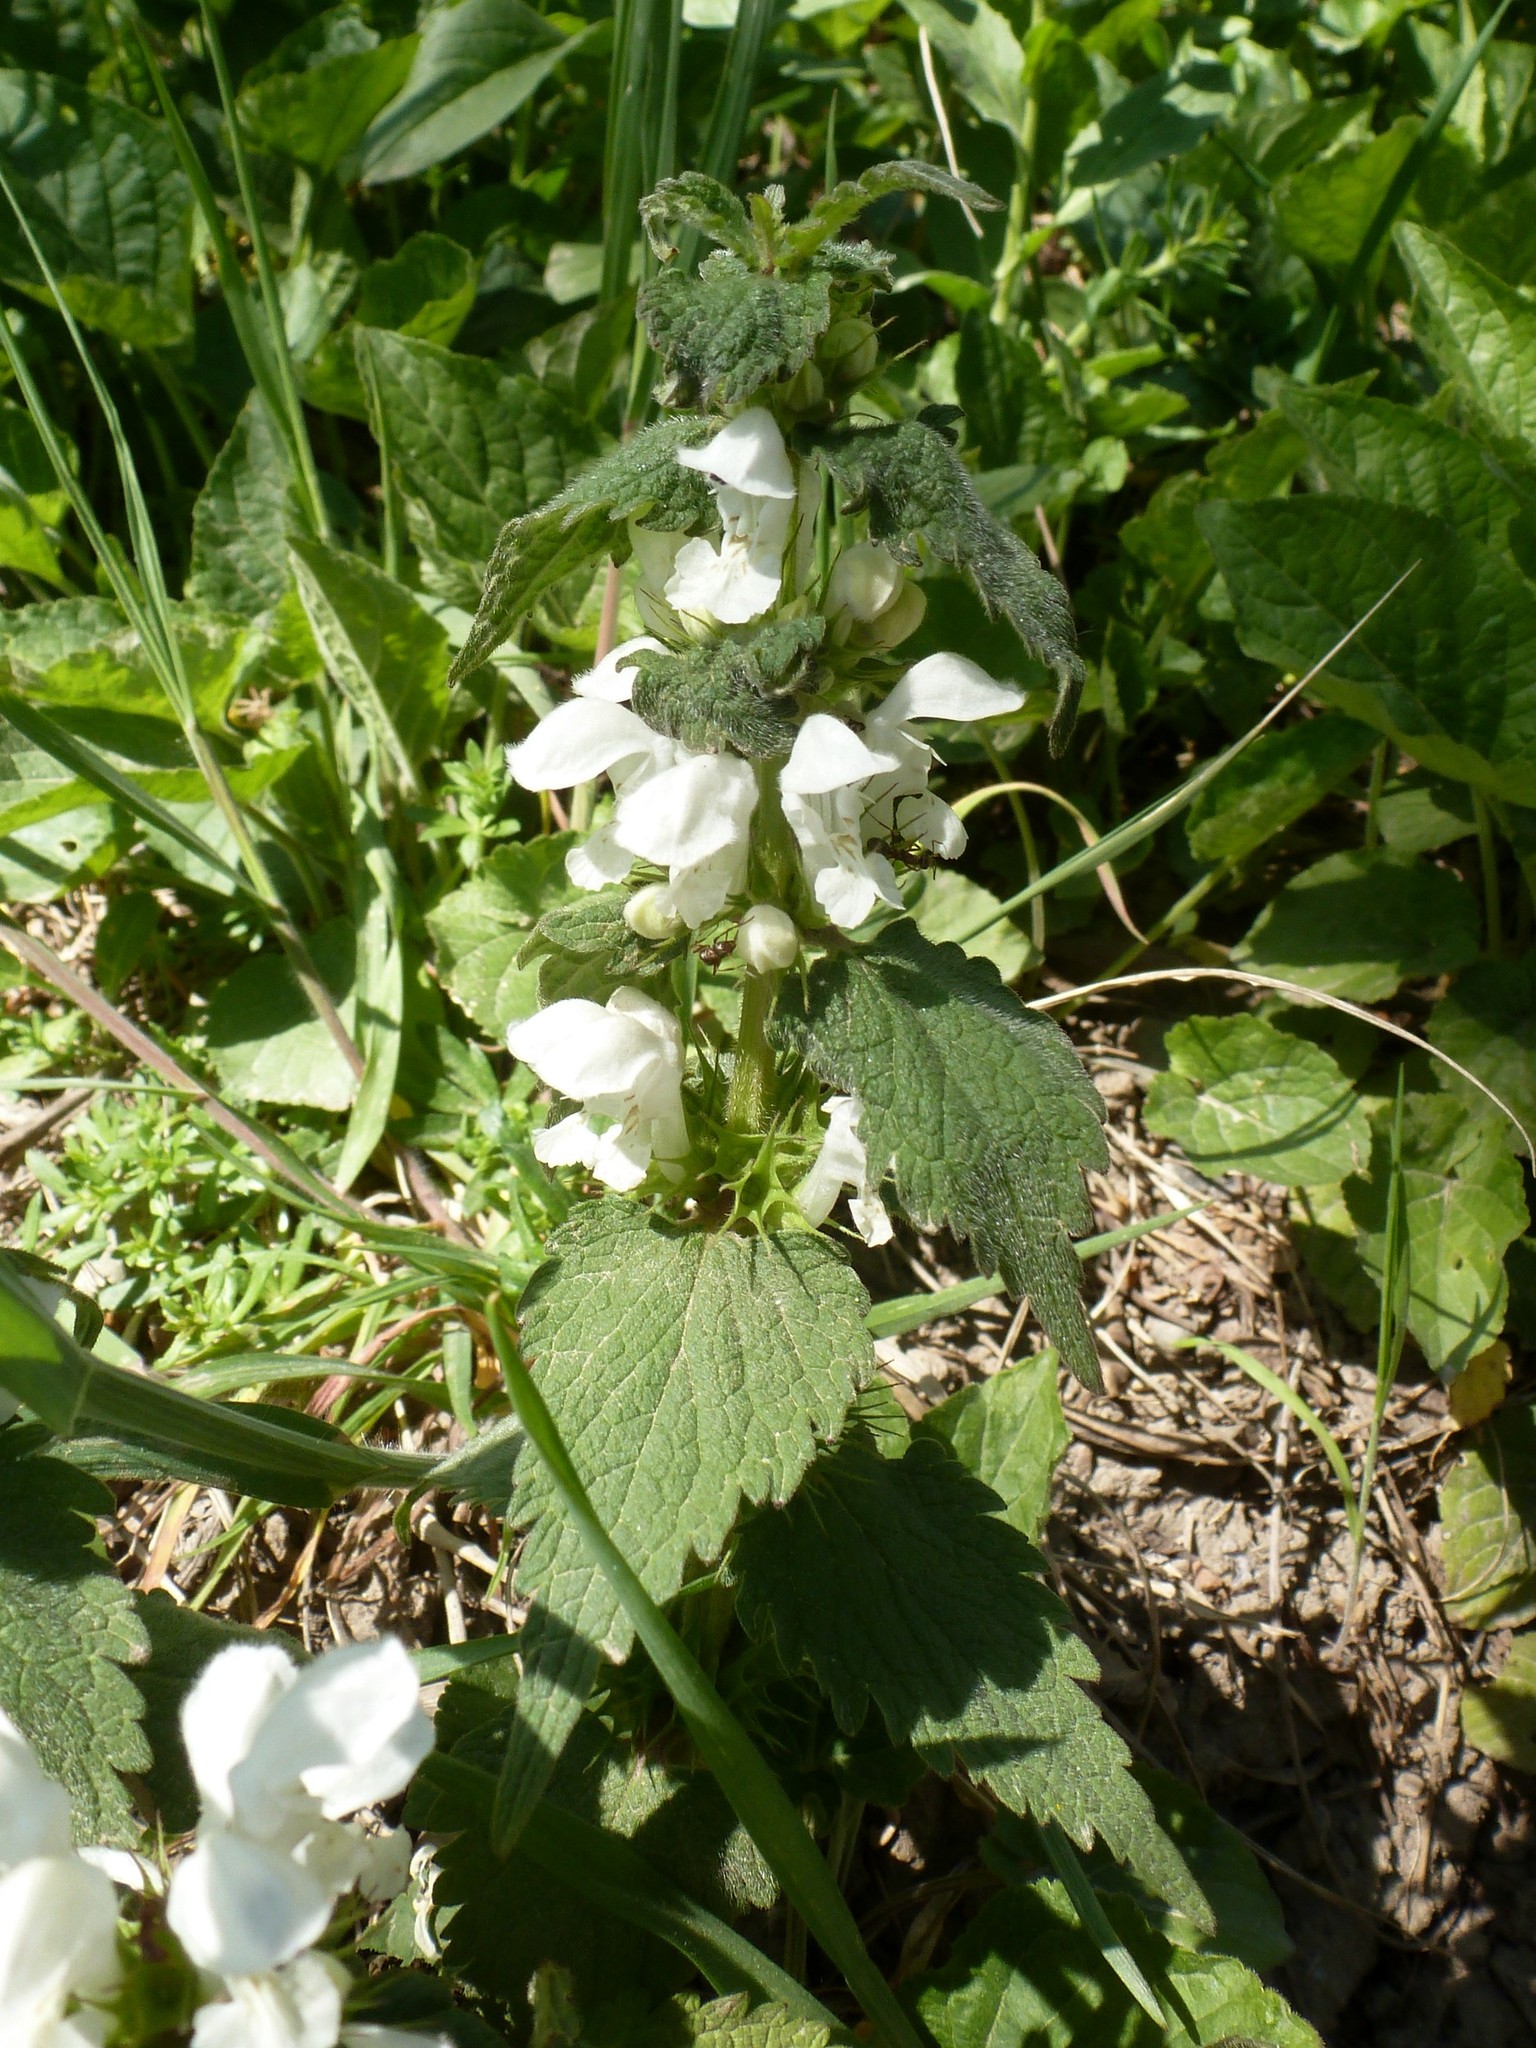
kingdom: Plantae
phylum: Tracheophyta
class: Magnoliopsida
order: Lamiales
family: Lamiaceae
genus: Lamium
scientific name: Lamium album
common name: White dead-nettle
